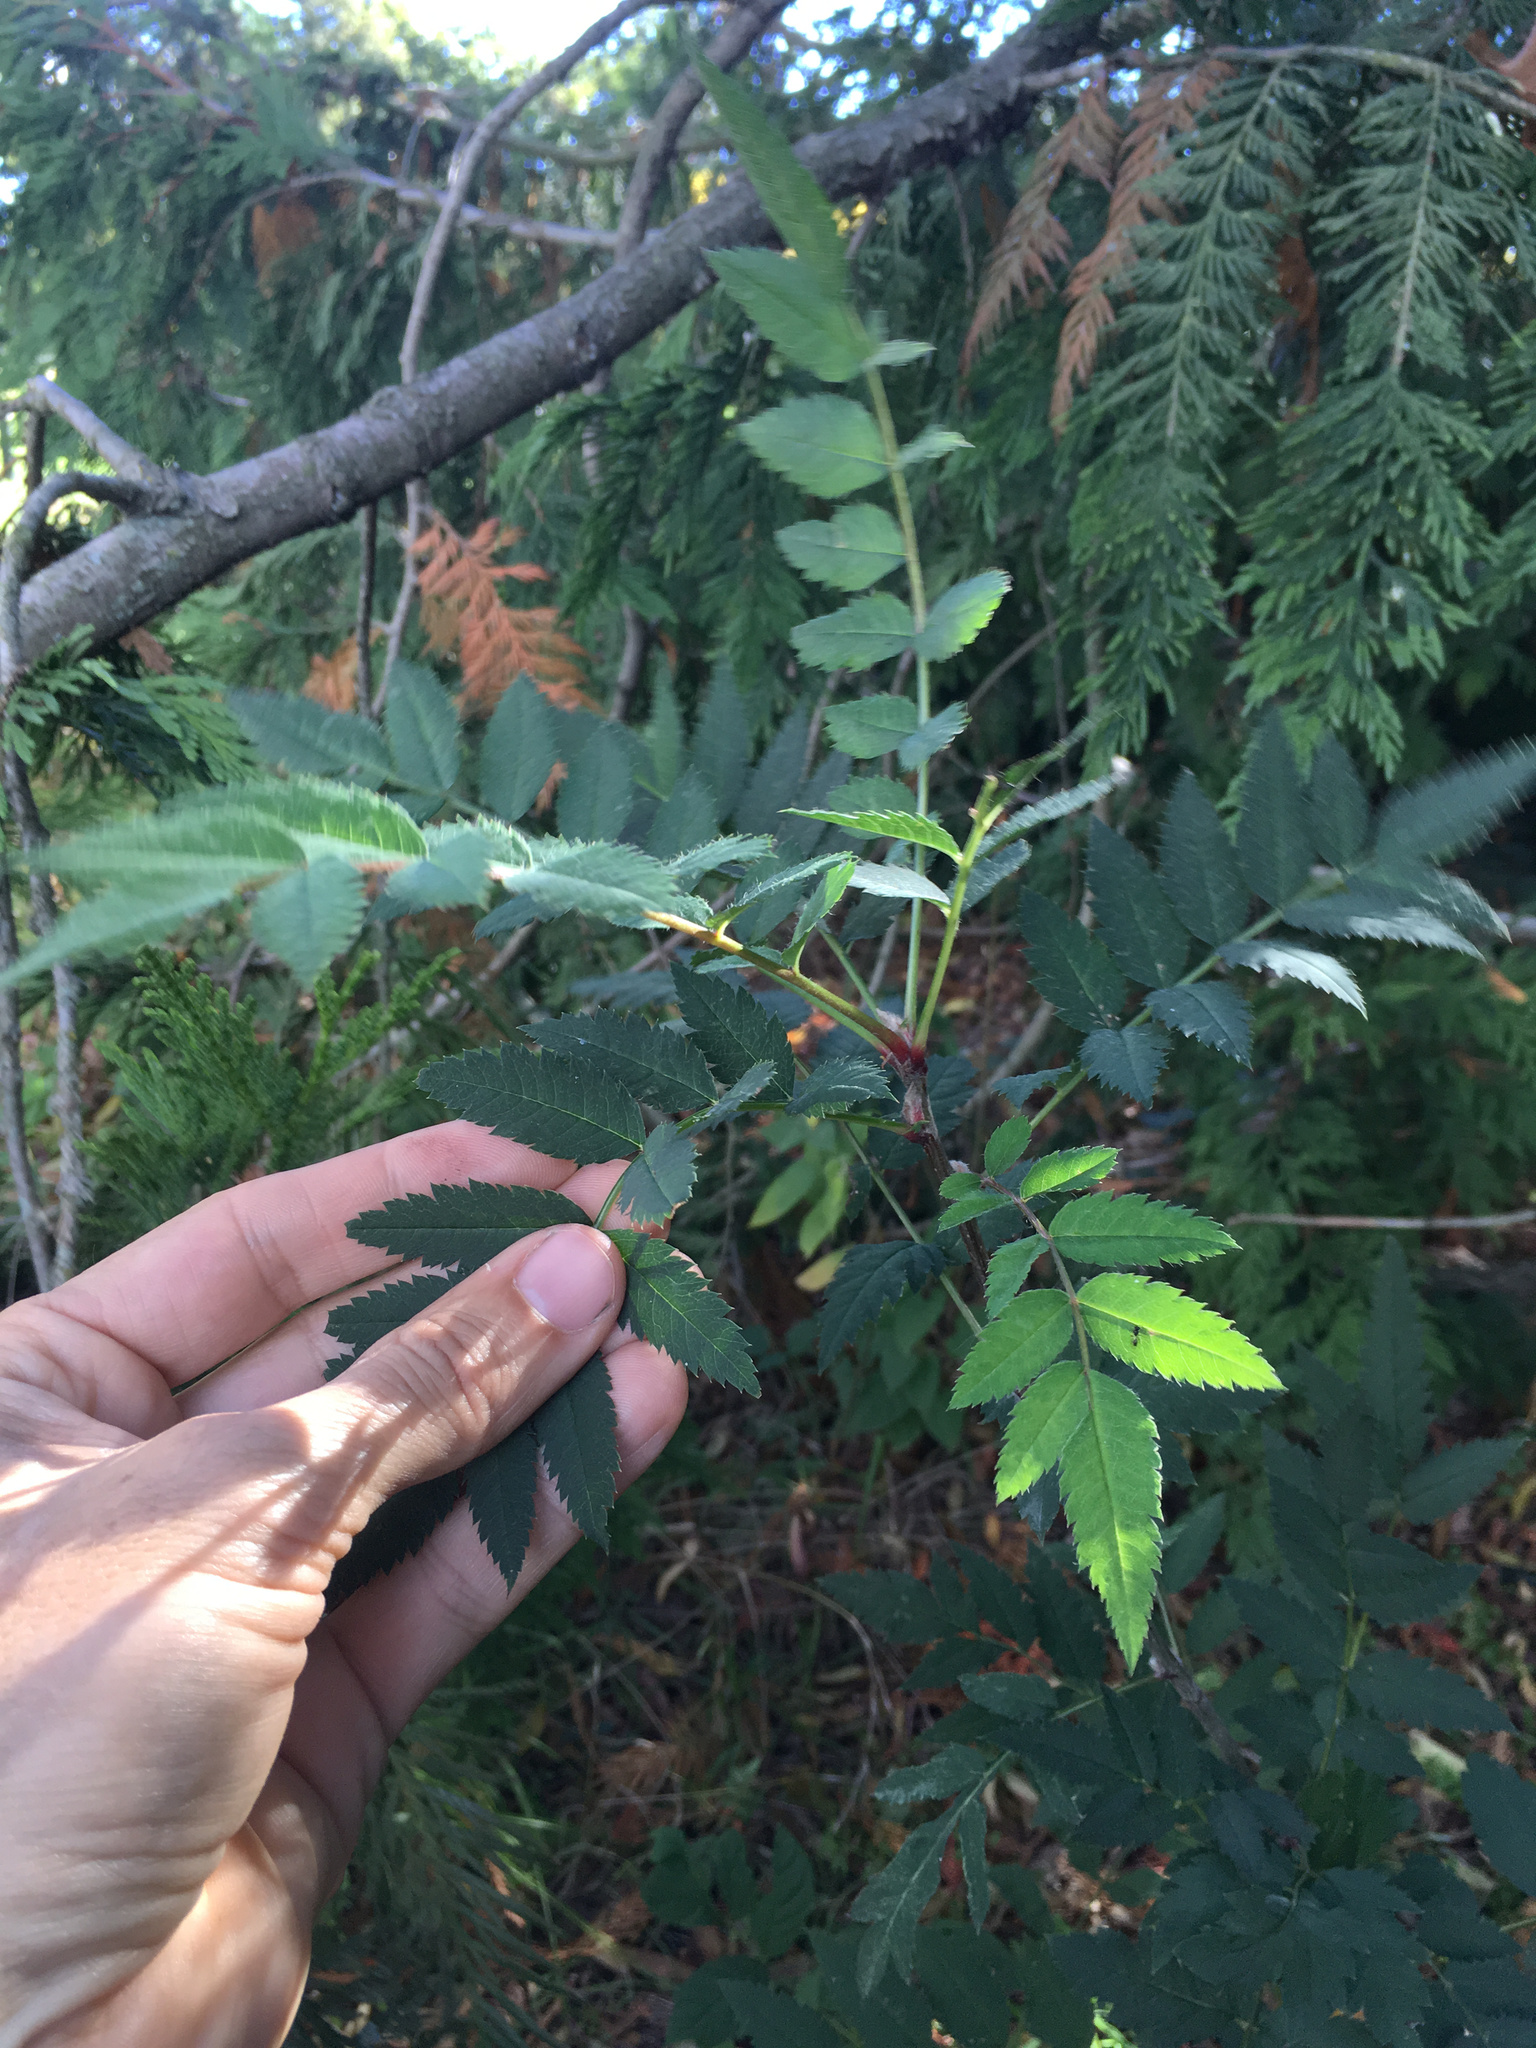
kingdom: Plantae
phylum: Tracheophyta
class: Magnoliopsida
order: Rosales
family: Rosaceae
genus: Sorbus
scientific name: Sorbus aucuparia
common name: Rowan
